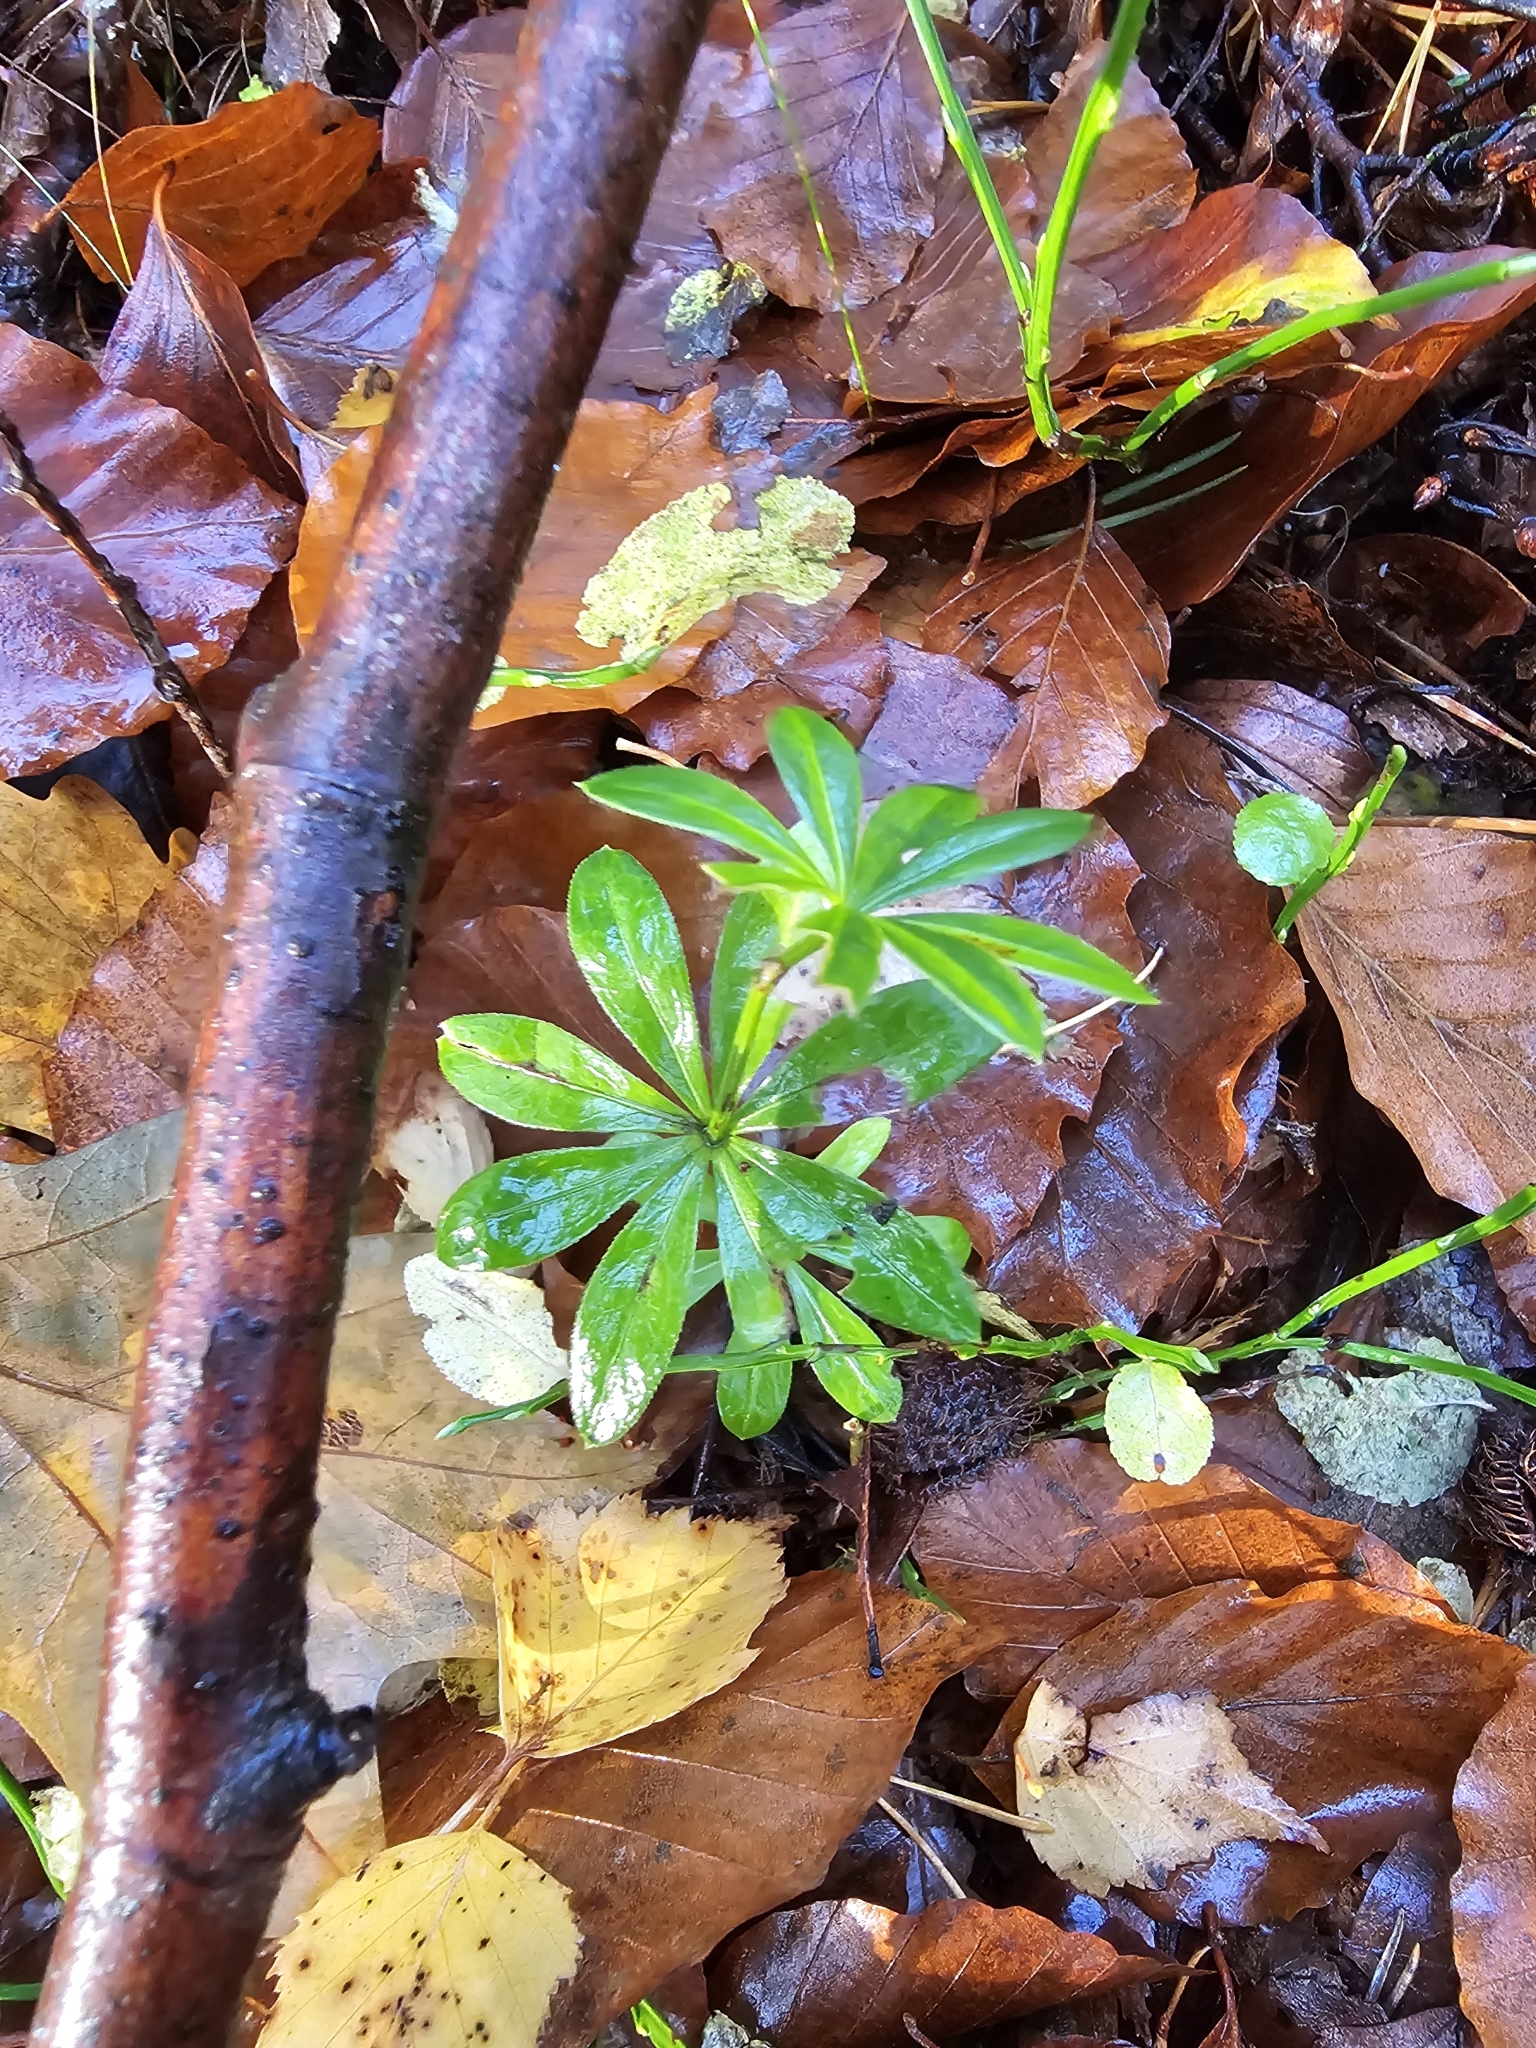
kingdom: Plantae
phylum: Tracheophyta
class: Magnoliopsida
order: Gentianales
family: Rubiaceae
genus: Galium
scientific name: Galium odoratum
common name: Sweet woodruff
